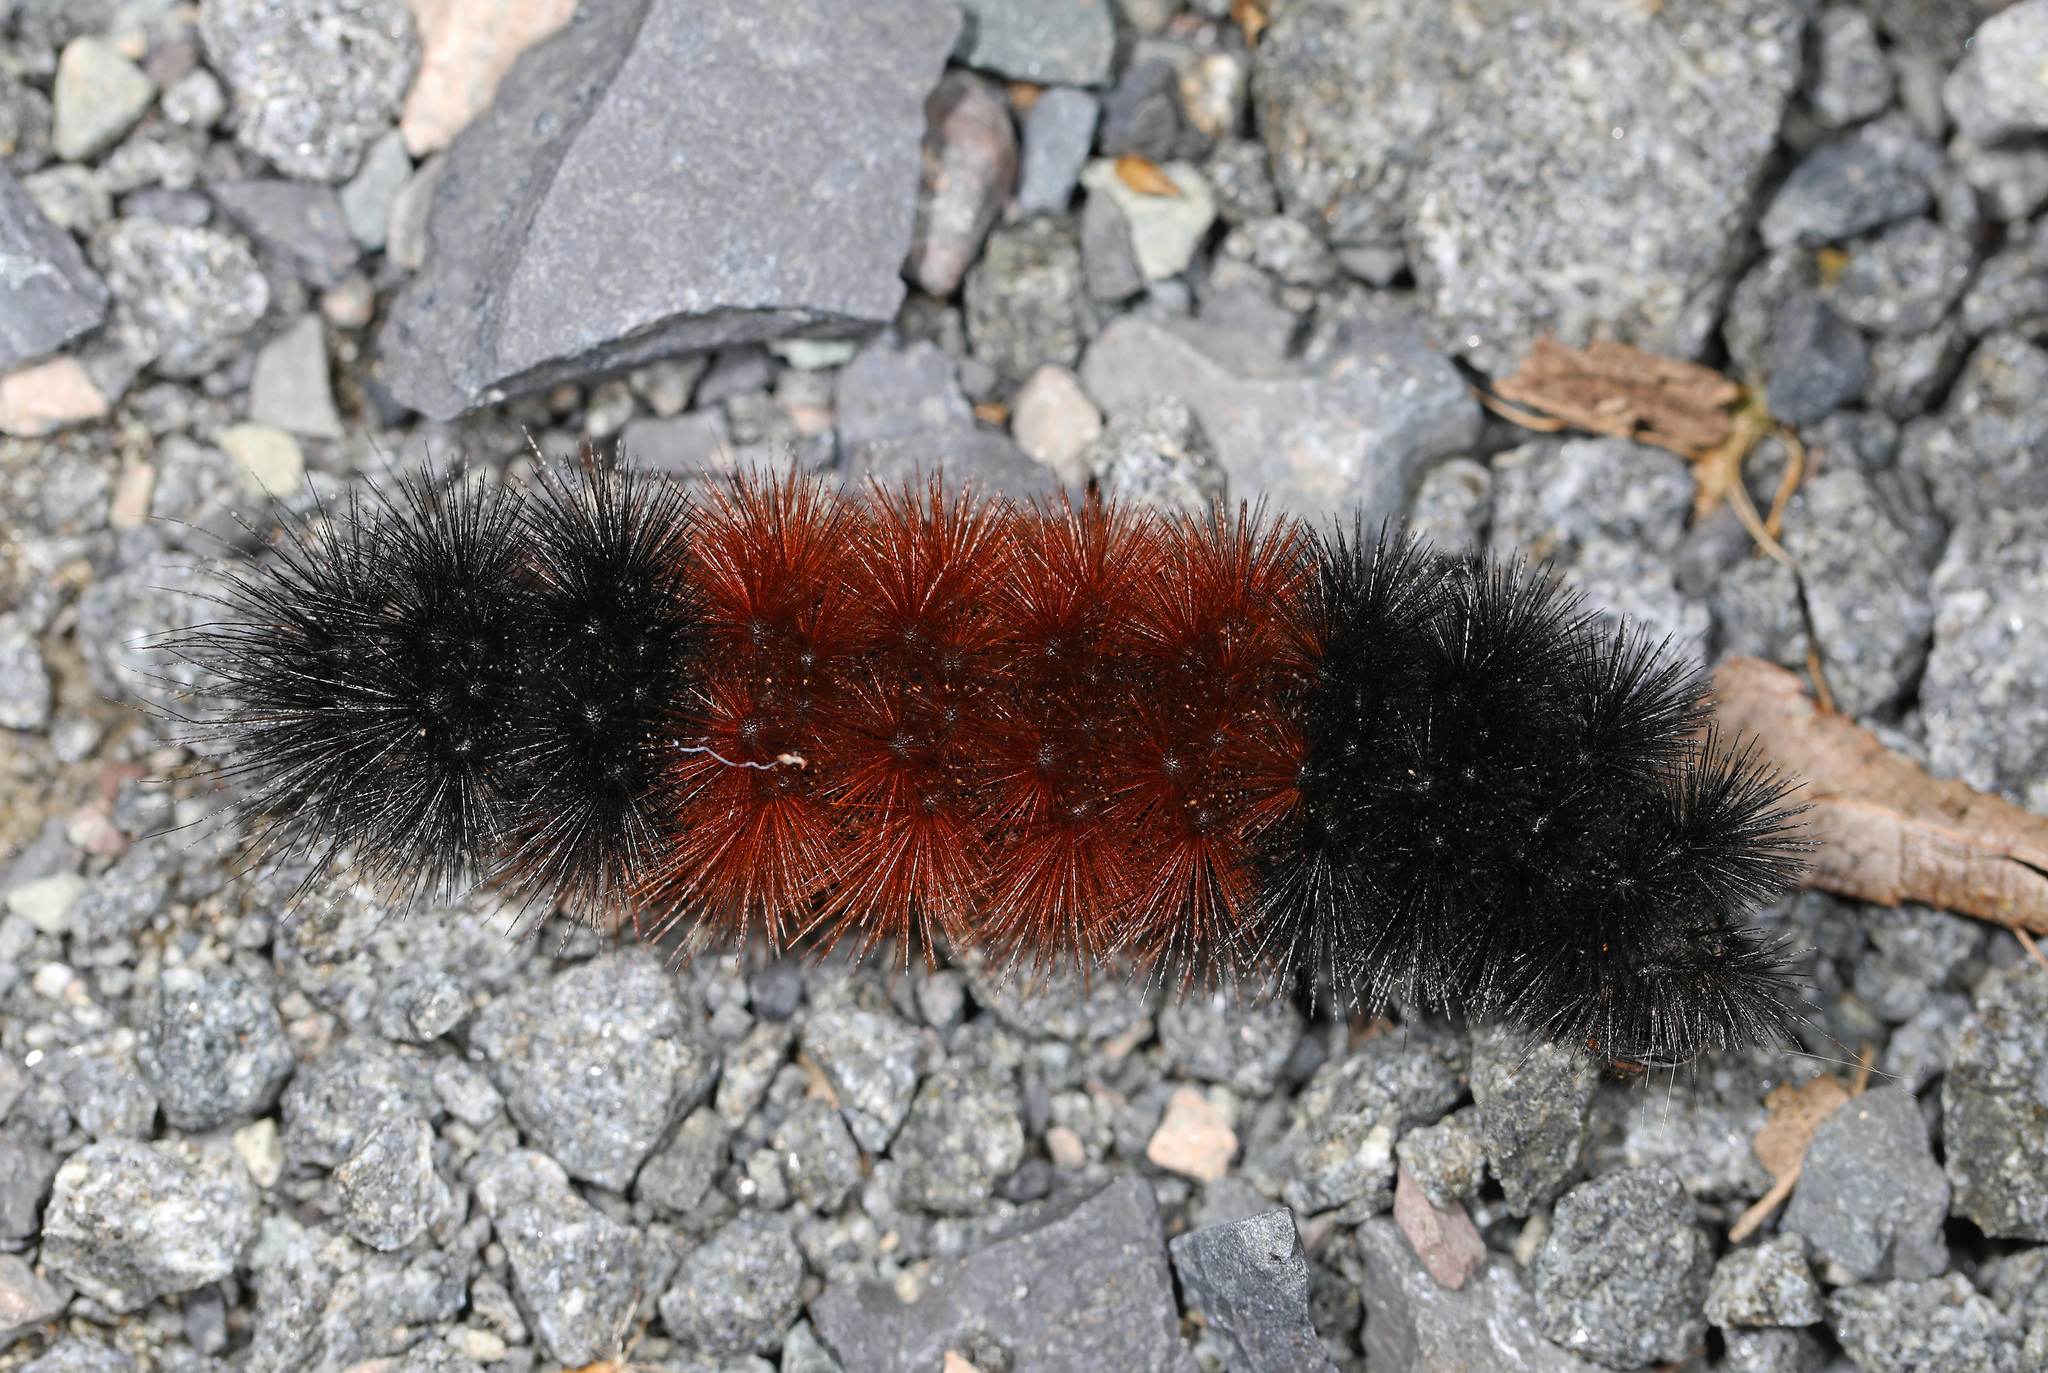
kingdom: Animalia
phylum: Arthropoda
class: Insecta
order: Lepidoptera
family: Erebidae
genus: Pyrrharctia
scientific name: Pyrrharctia isabella
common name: Isabella tiger moth
